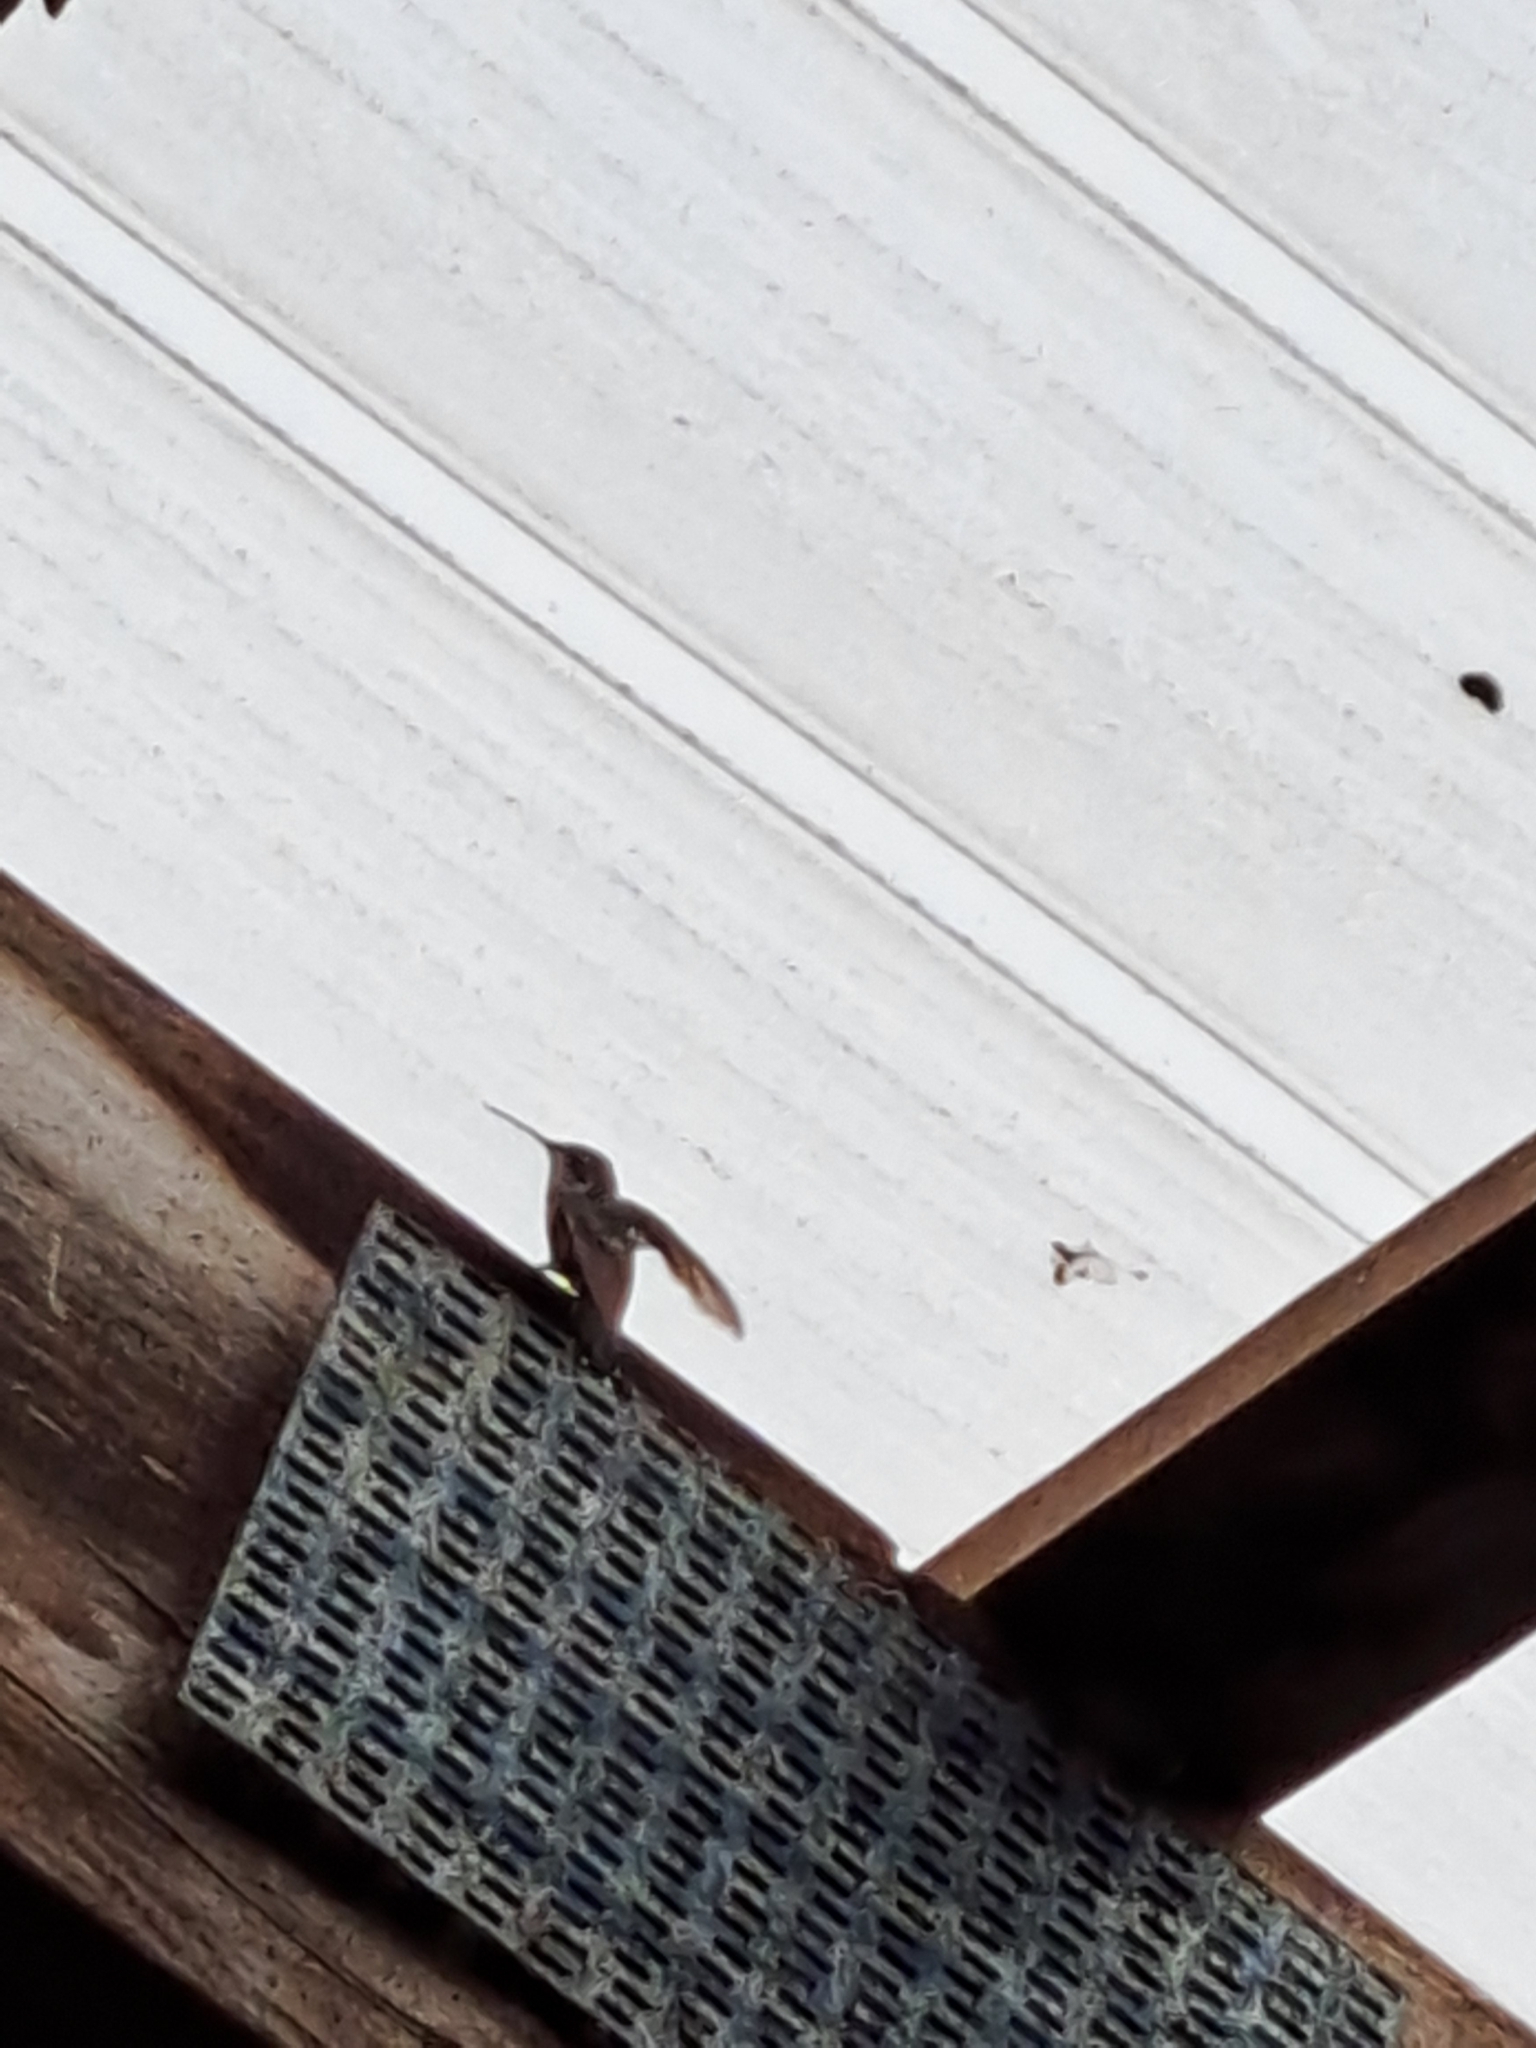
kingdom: Animalia
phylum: Chordata
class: Aves
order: Apodiformes
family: Trochilidae
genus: Archilochus
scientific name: Archilochus colubris
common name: Ruby-throated hummingbird
